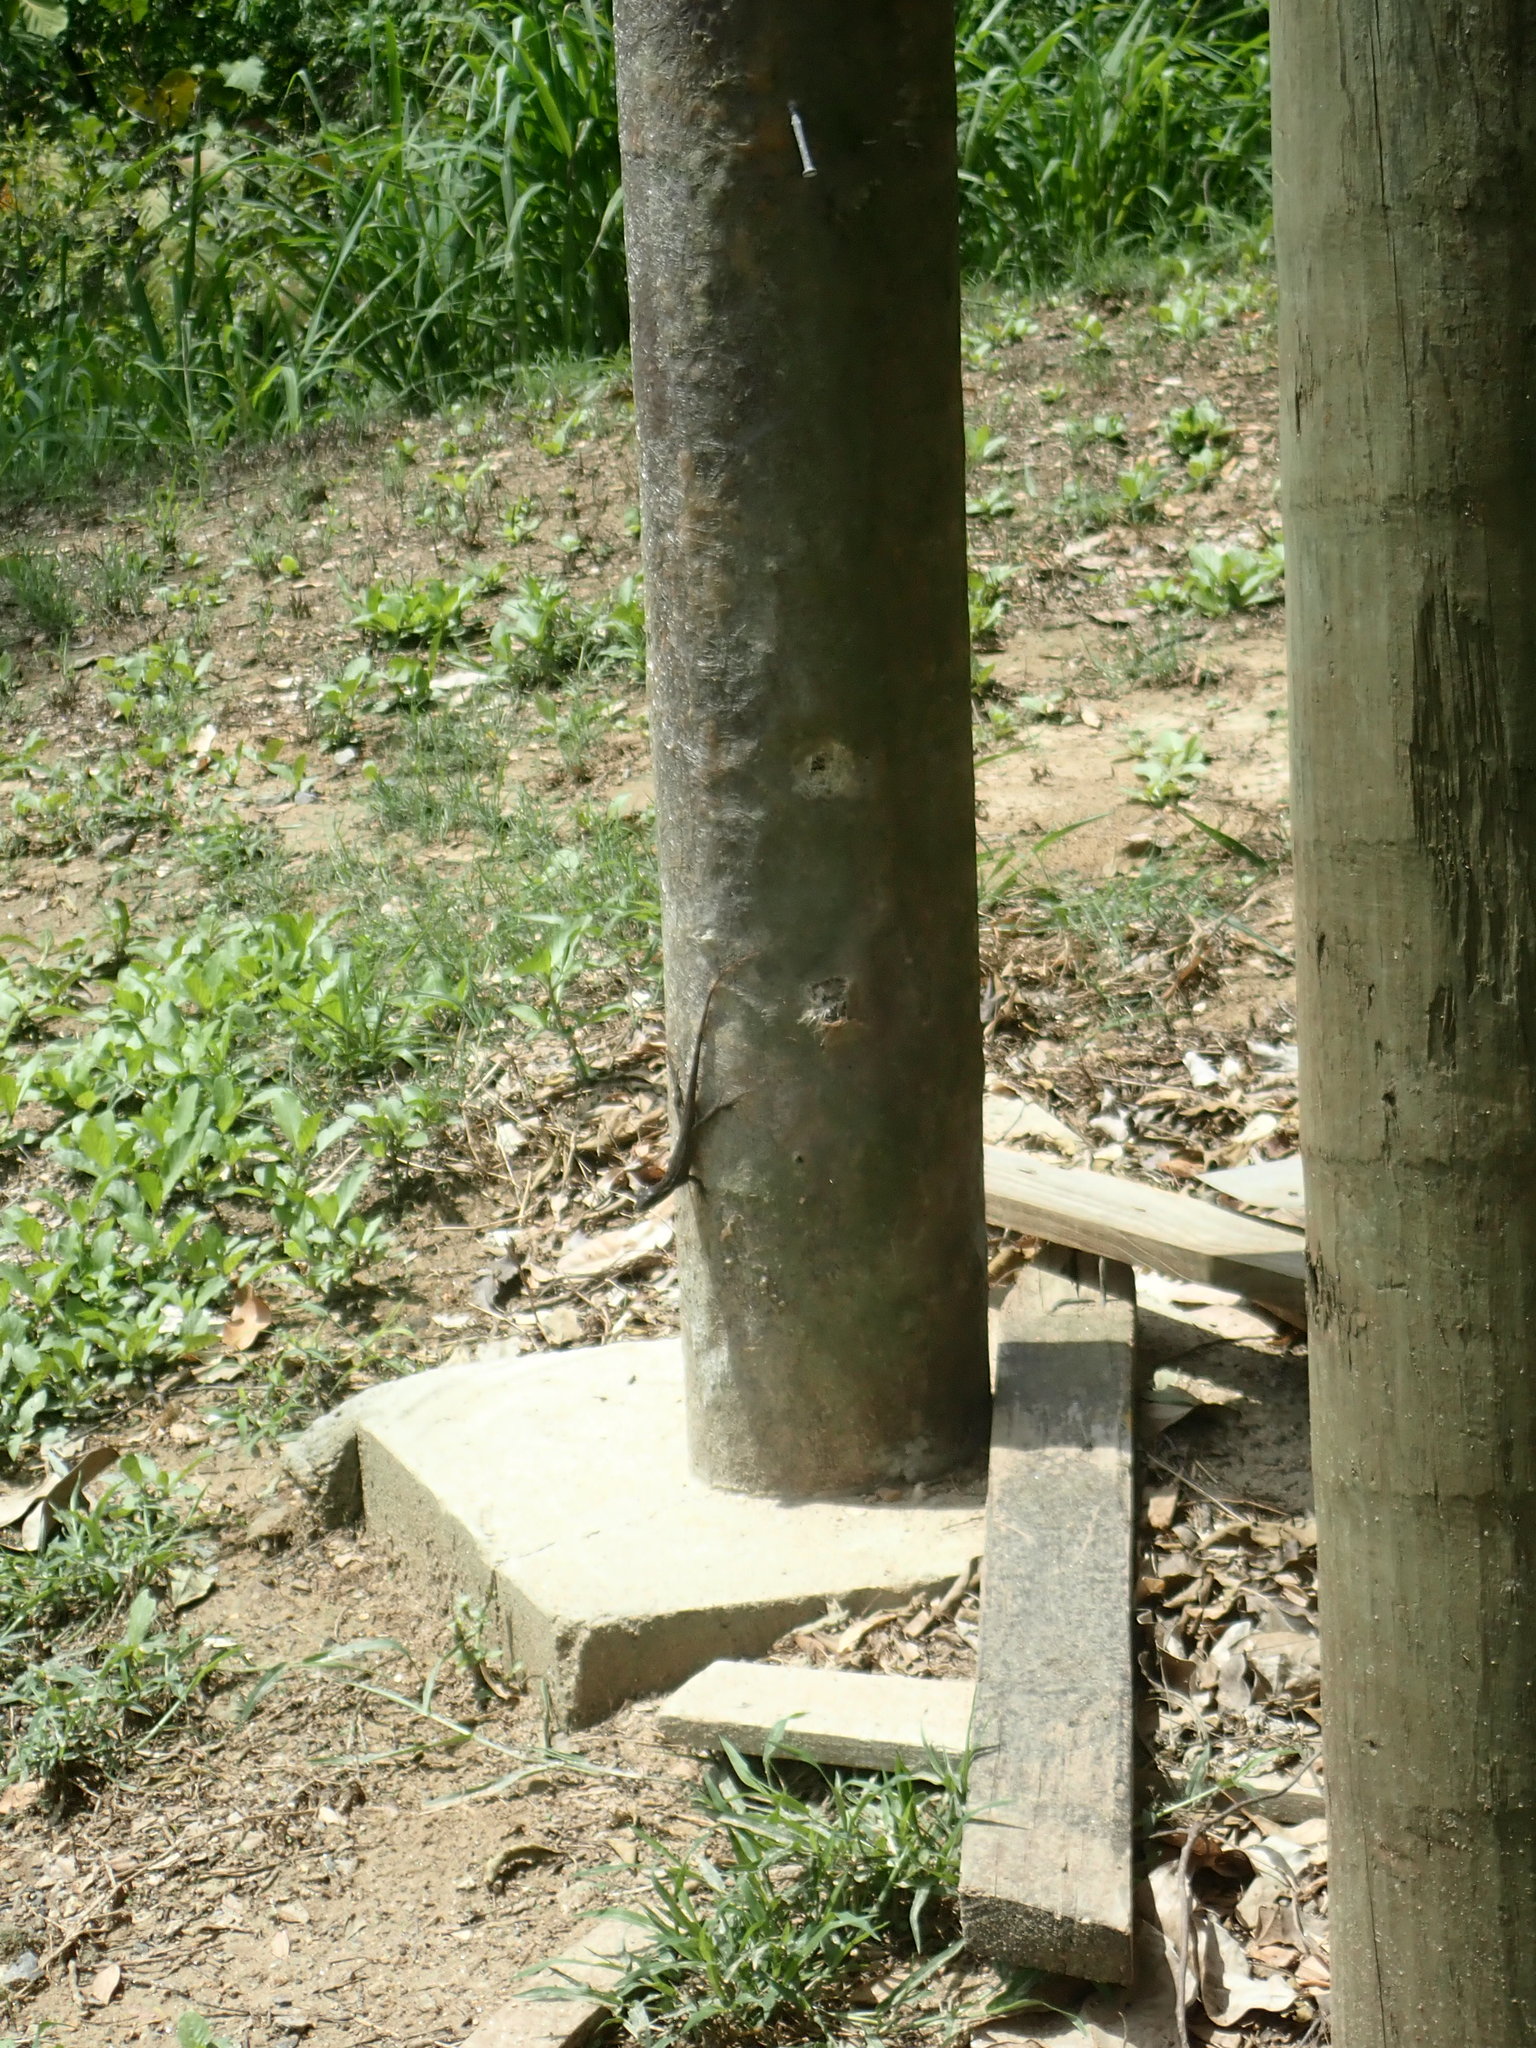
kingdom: Animalia
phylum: Chordata
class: Squamata
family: Dactyloidae
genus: Anolis
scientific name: Anolis allisoni
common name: Allison's anole
